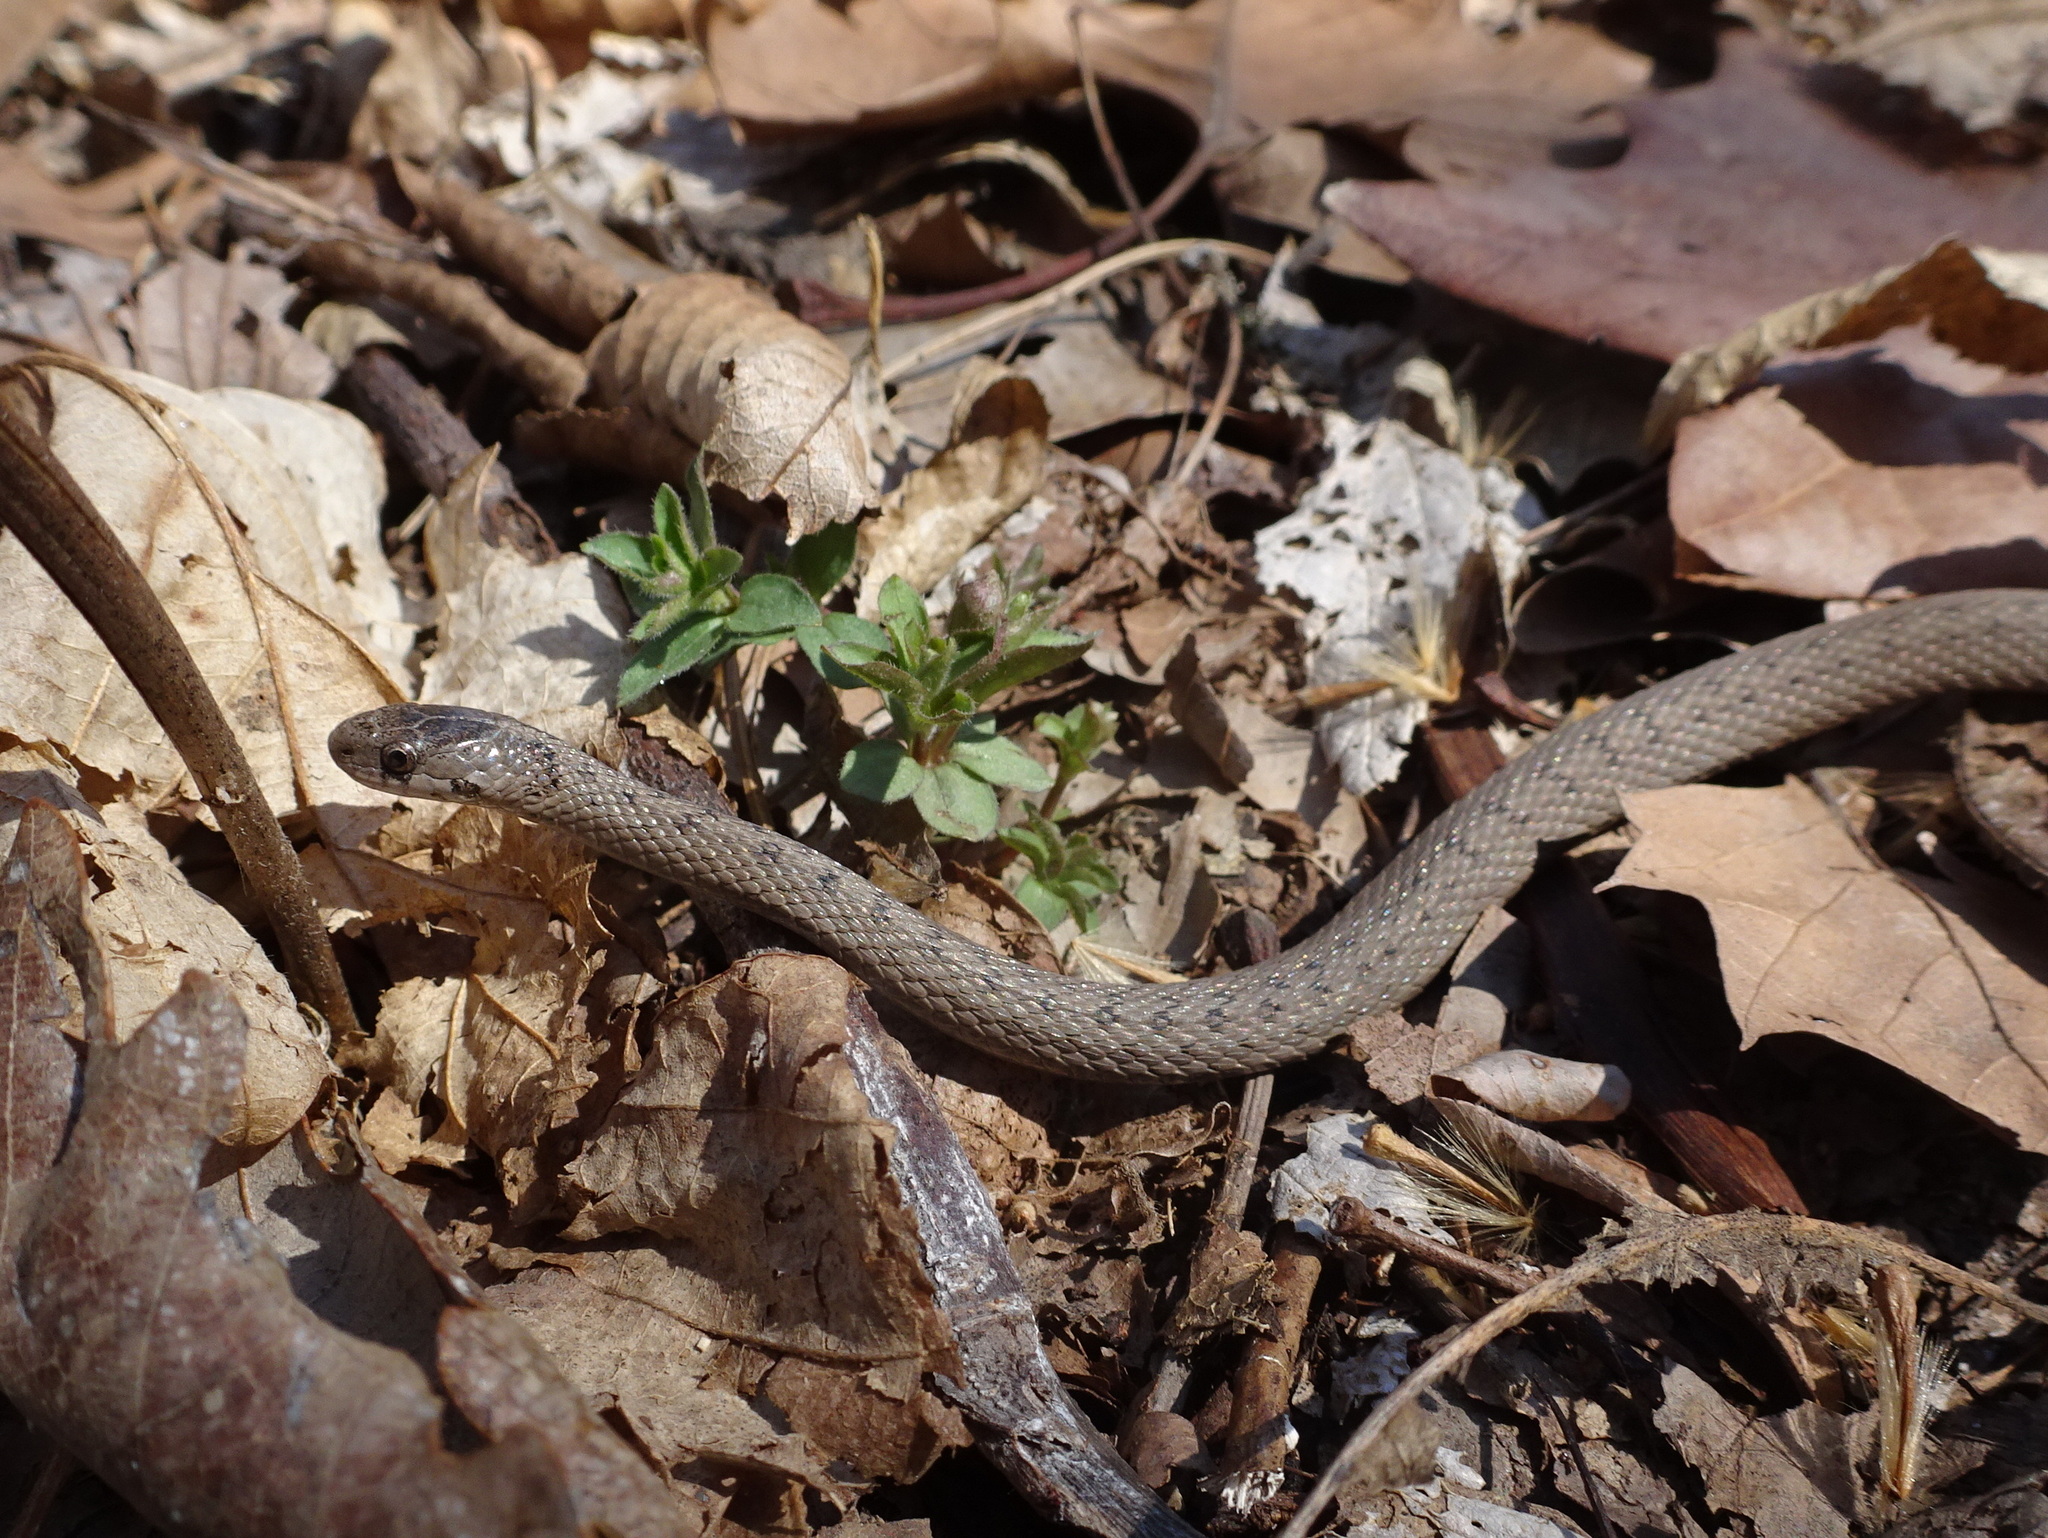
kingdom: Animalia
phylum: Chordata
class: Squamata
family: Colubridae
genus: Storeria
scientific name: Storeria dekayi
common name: (dekay’s) brown snake
